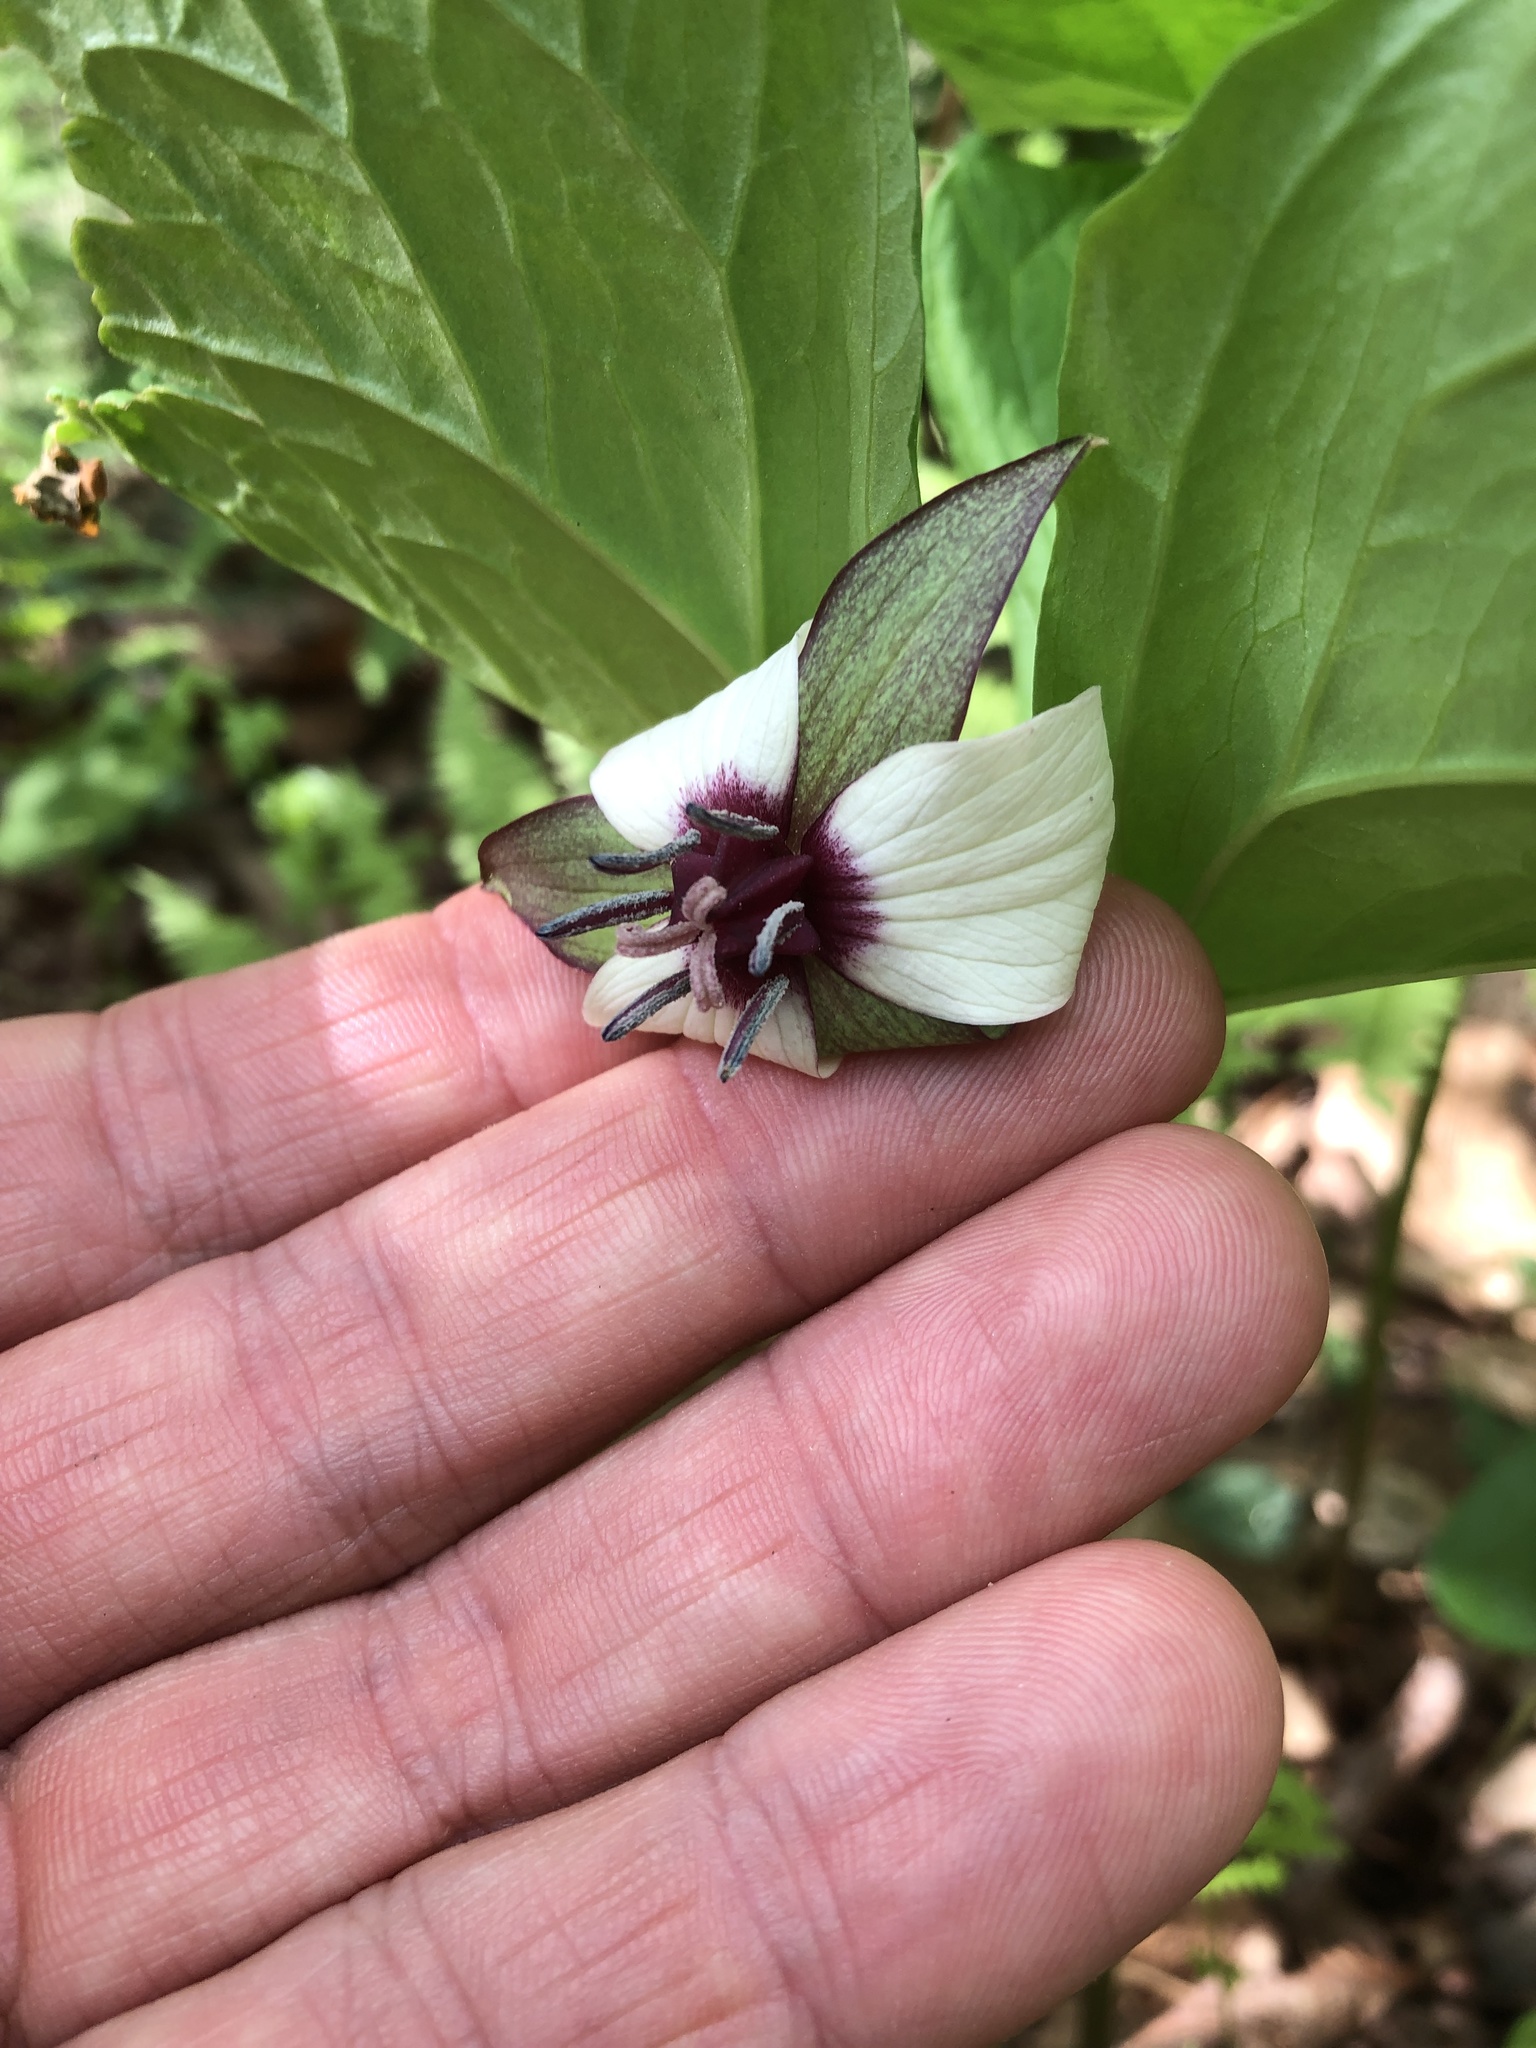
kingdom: Plantae
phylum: Tracheophyta
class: Liliopsida
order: Liliales
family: Melanthiaceae
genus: Trillium
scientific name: Trillium rugelii
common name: Ill-scented trillium
